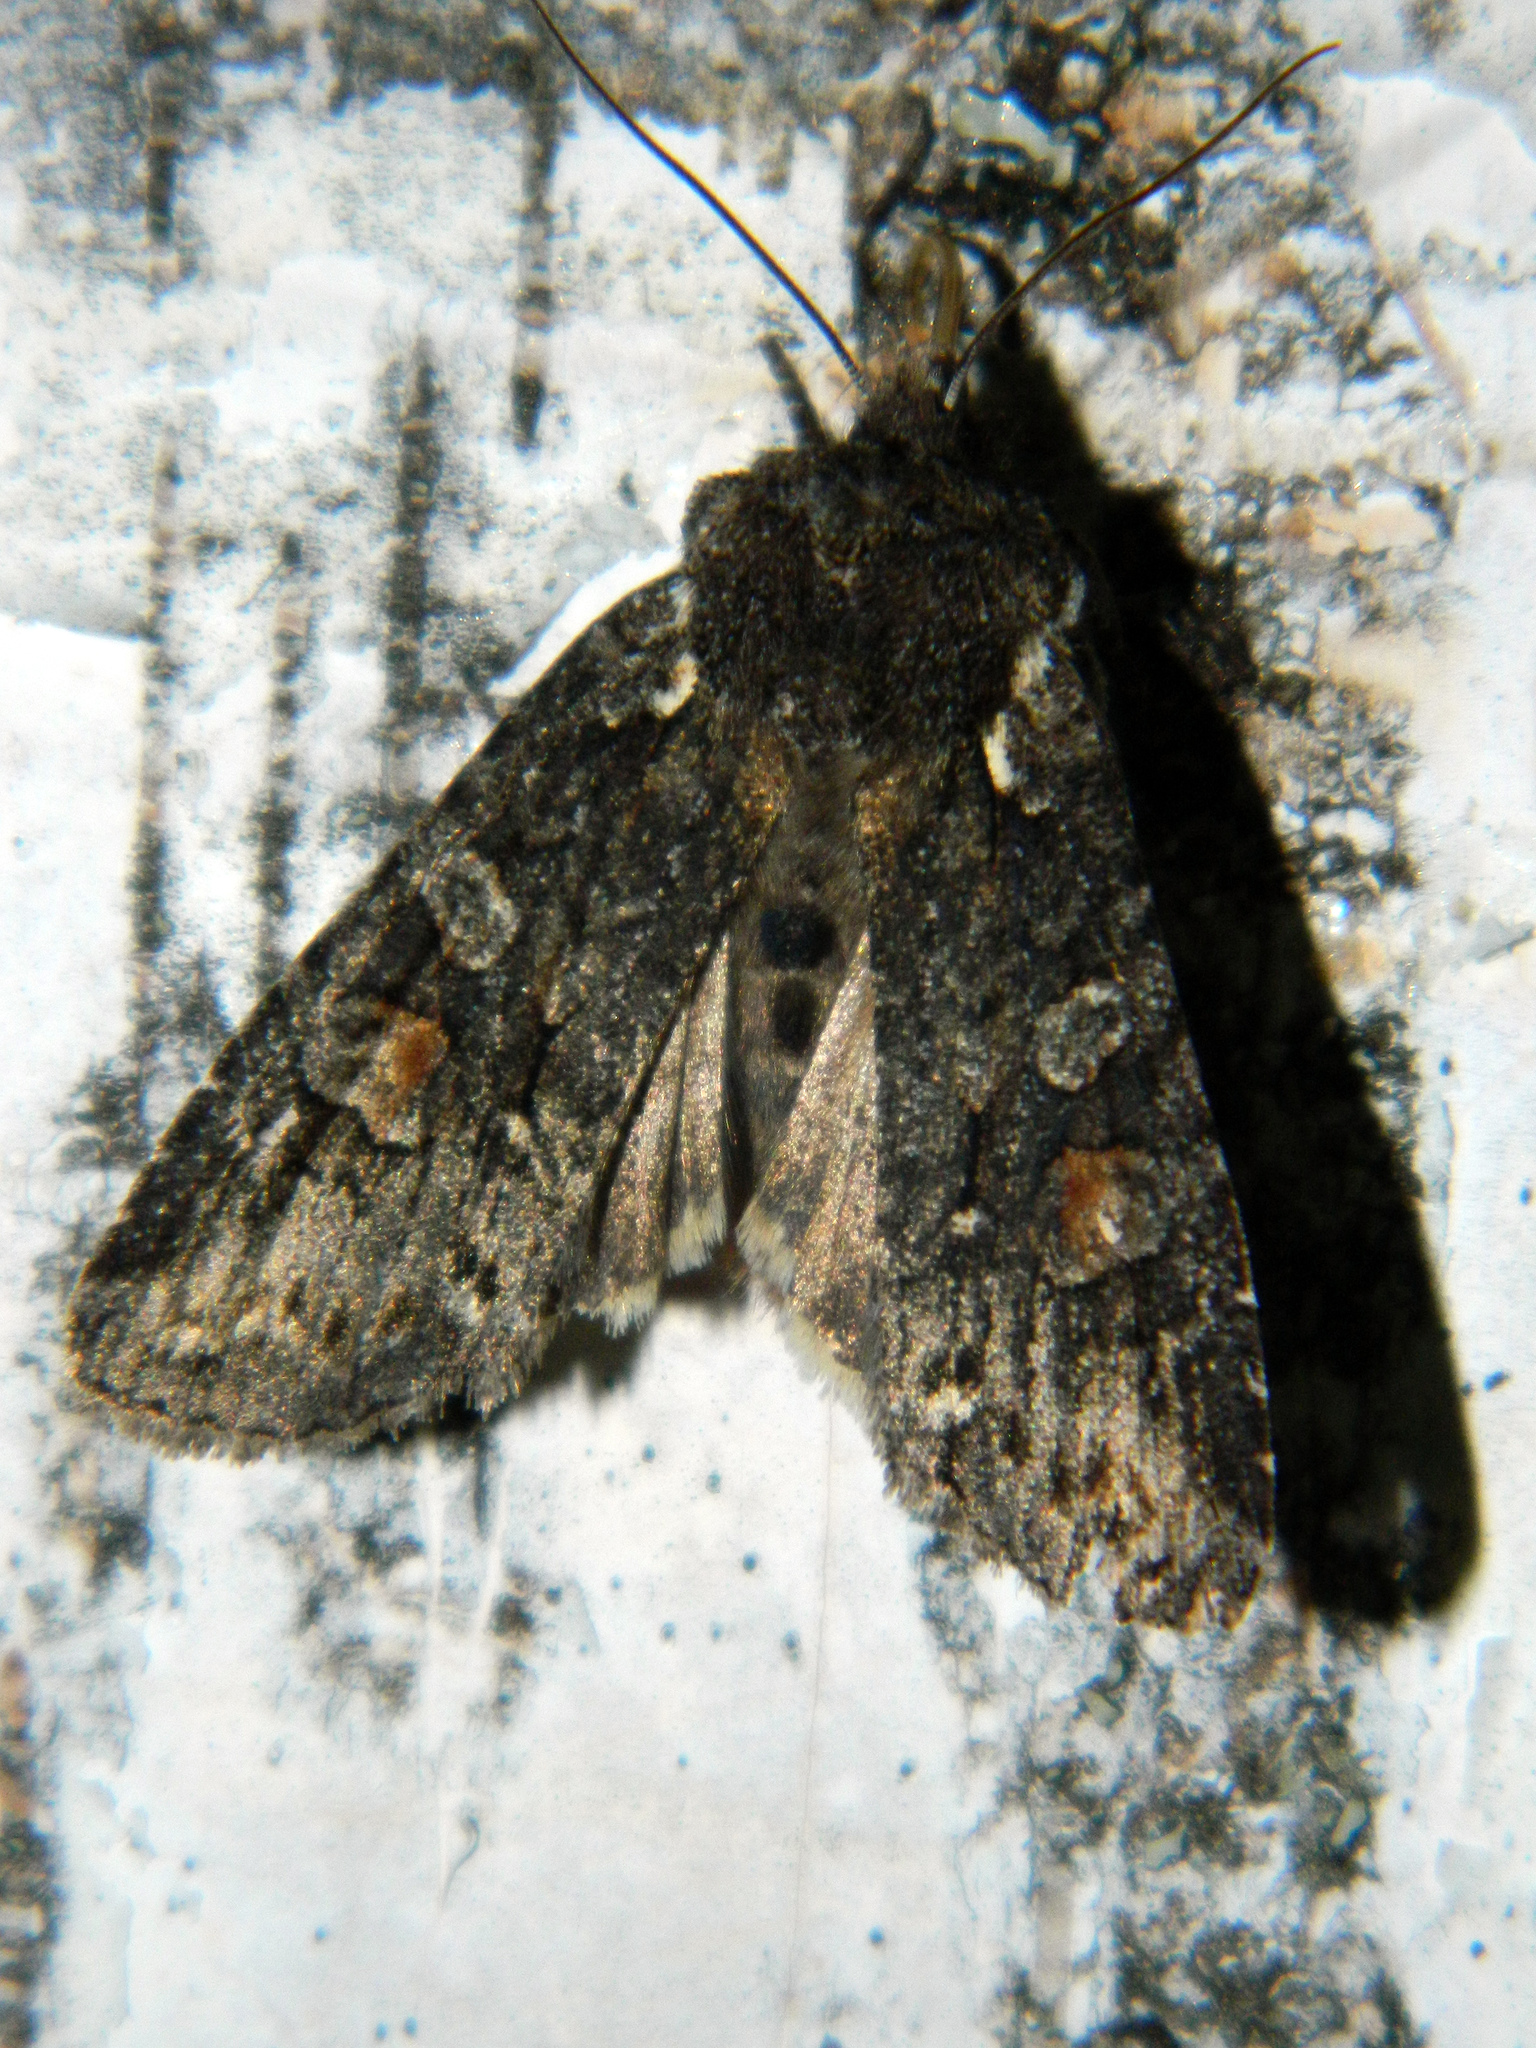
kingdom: Animalia
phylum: Arthropoda
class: Insecta
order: Lepidoptera
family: Noctuidae
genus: Lithophane
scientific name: Lithophane pexata
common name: Plush-naped pinion moth
